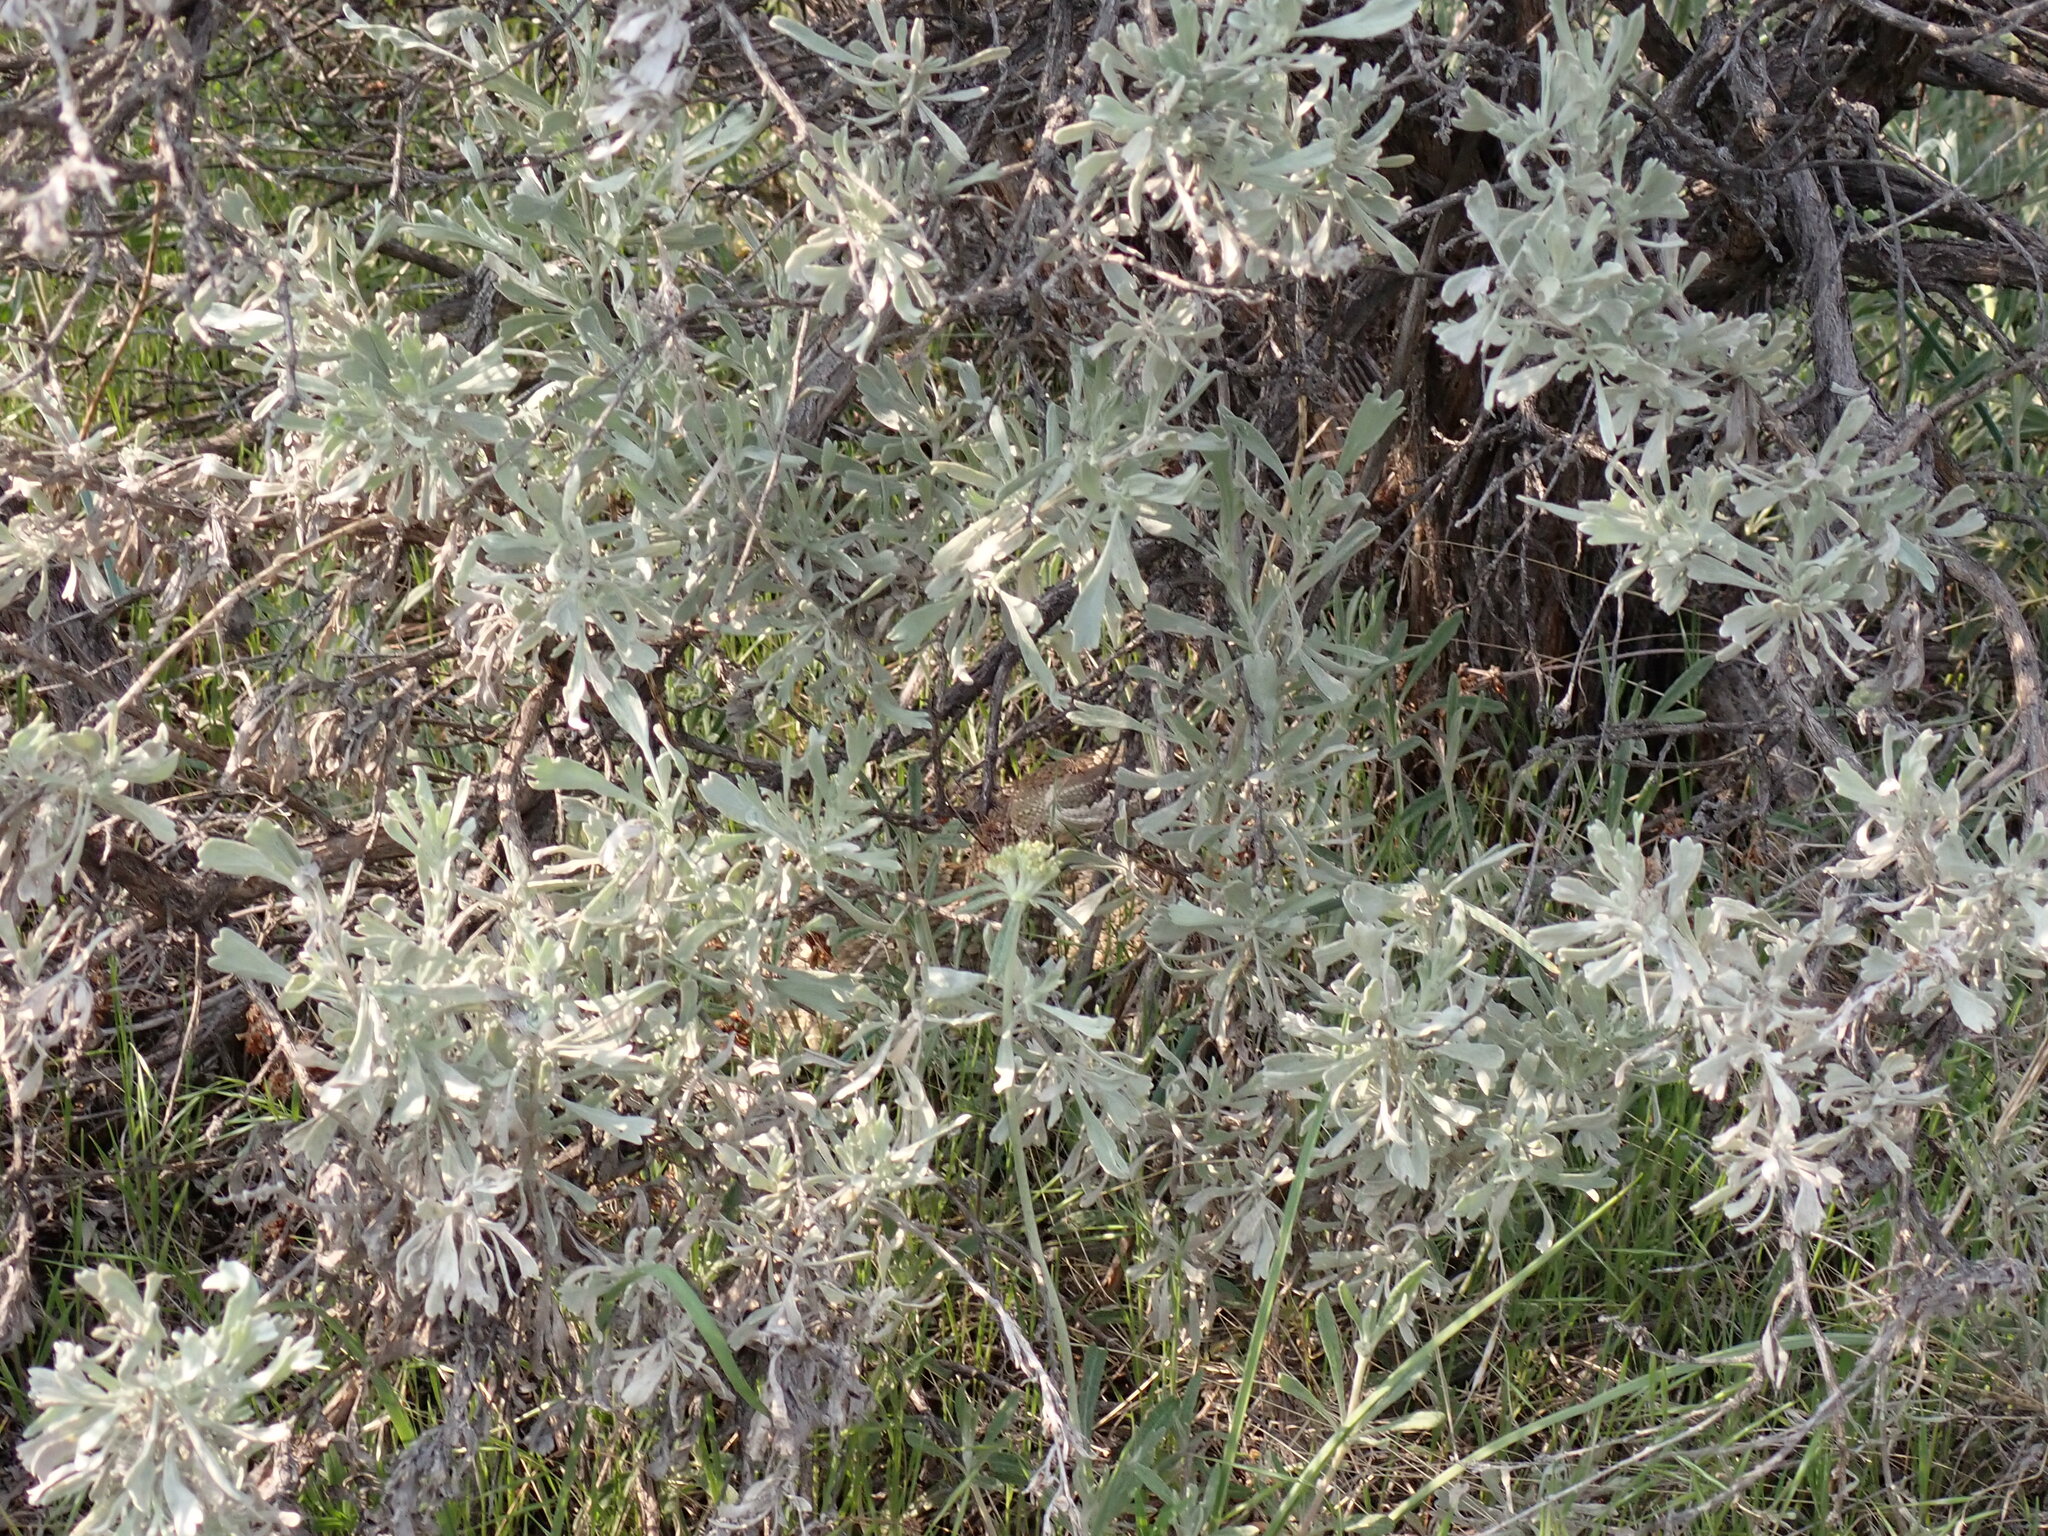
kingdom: Animalia
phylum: Chordata
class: Squamata
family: Viperidae
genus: Crotalus
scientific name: Crotalus oreganus
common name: Abyssus
